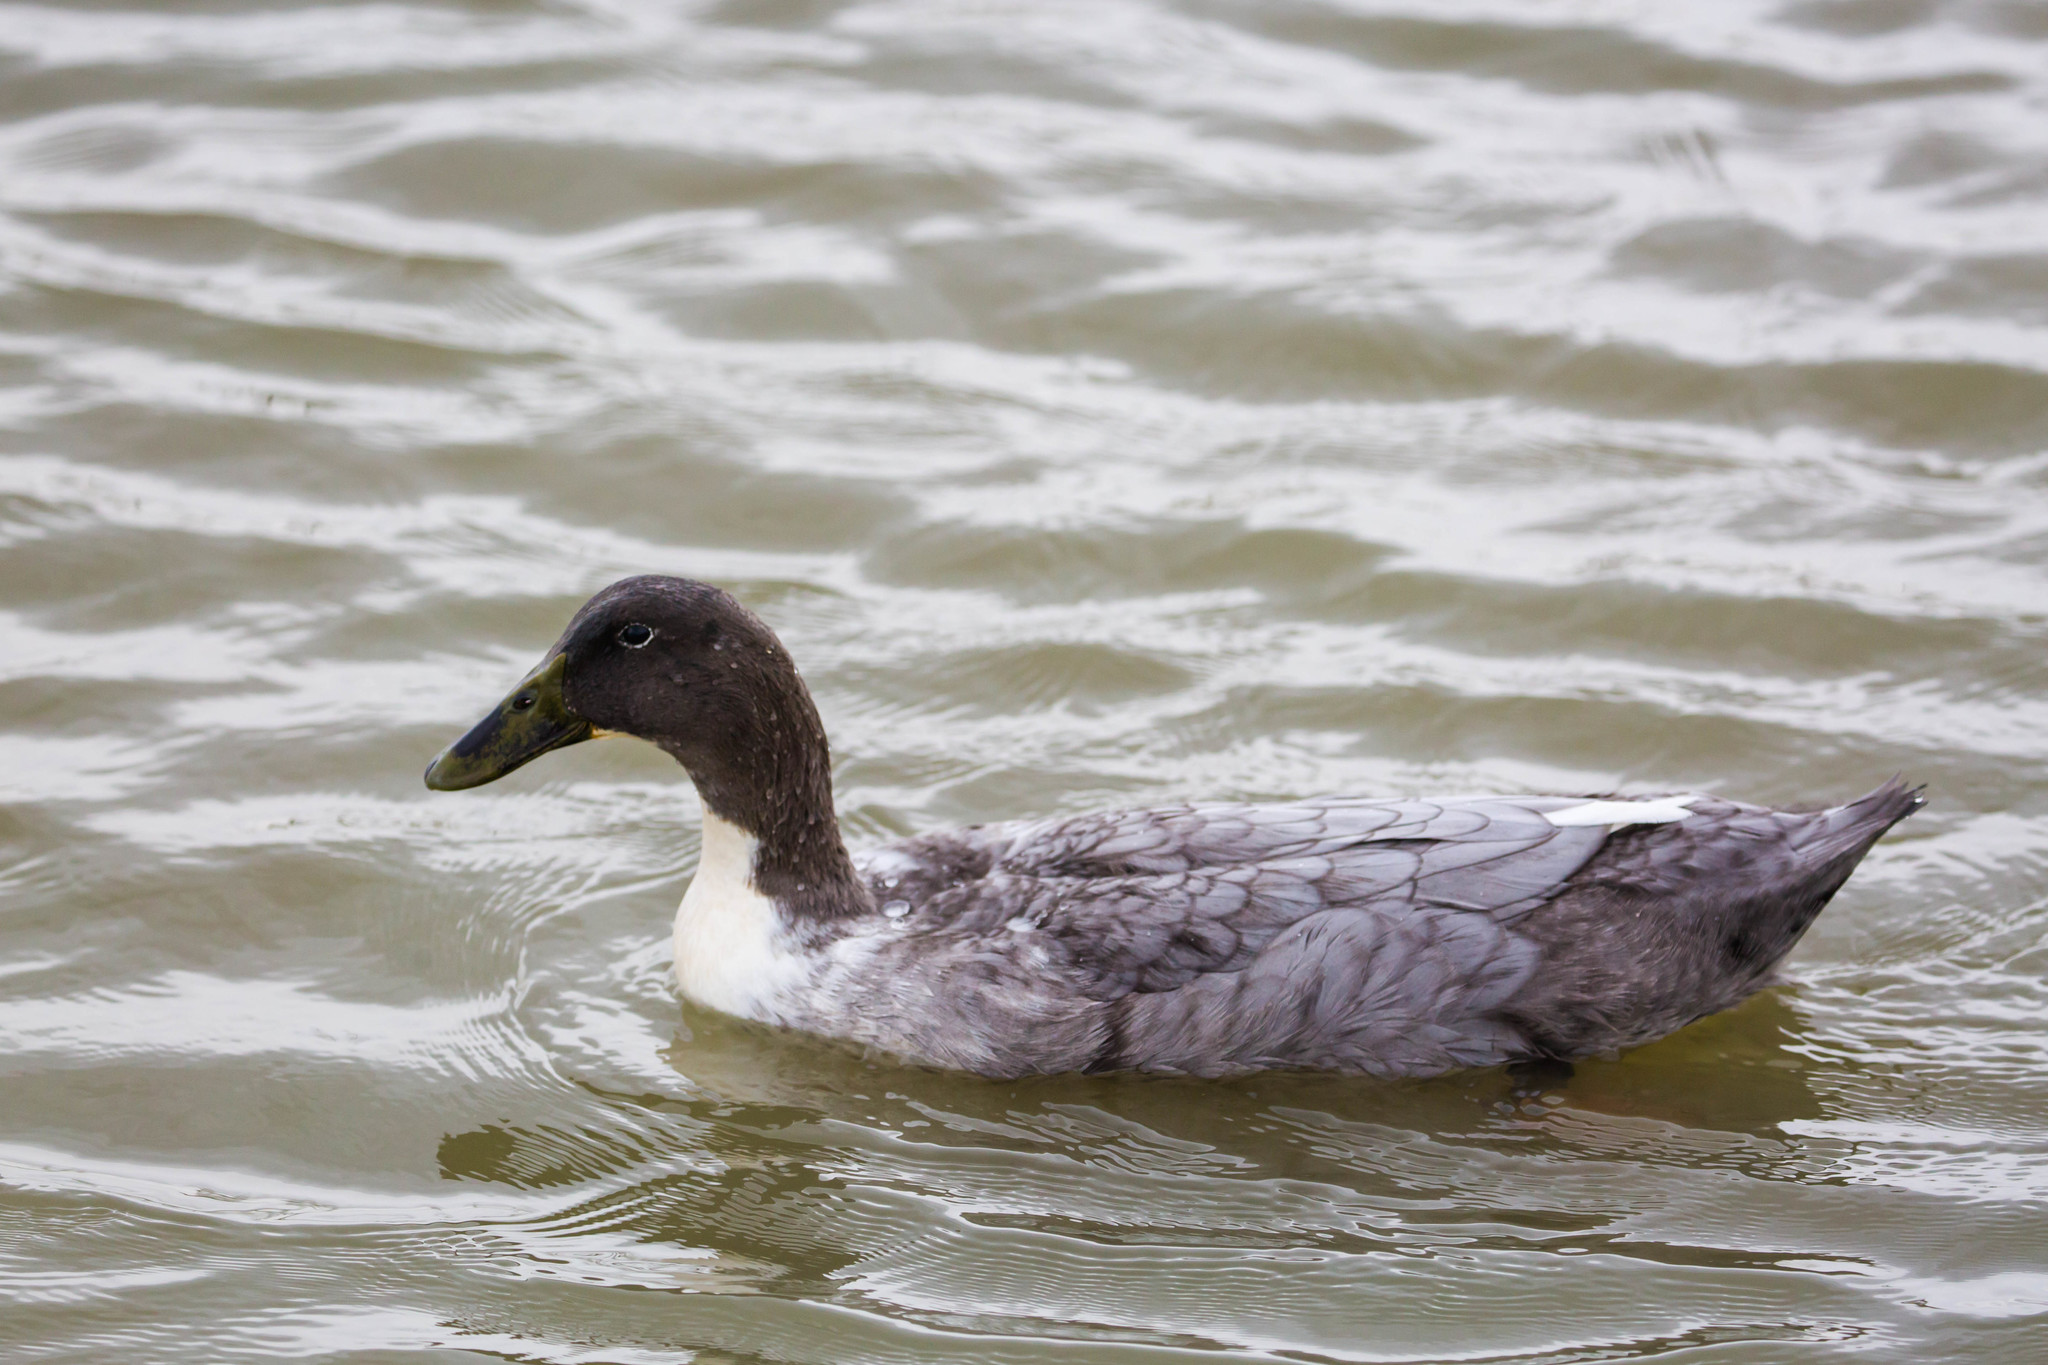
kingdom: Animalia
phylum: Chordata
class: Aves
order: Anseriformes
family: Anatidae
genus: Anas
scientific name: Anas platyrhynchos
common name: Mallard
